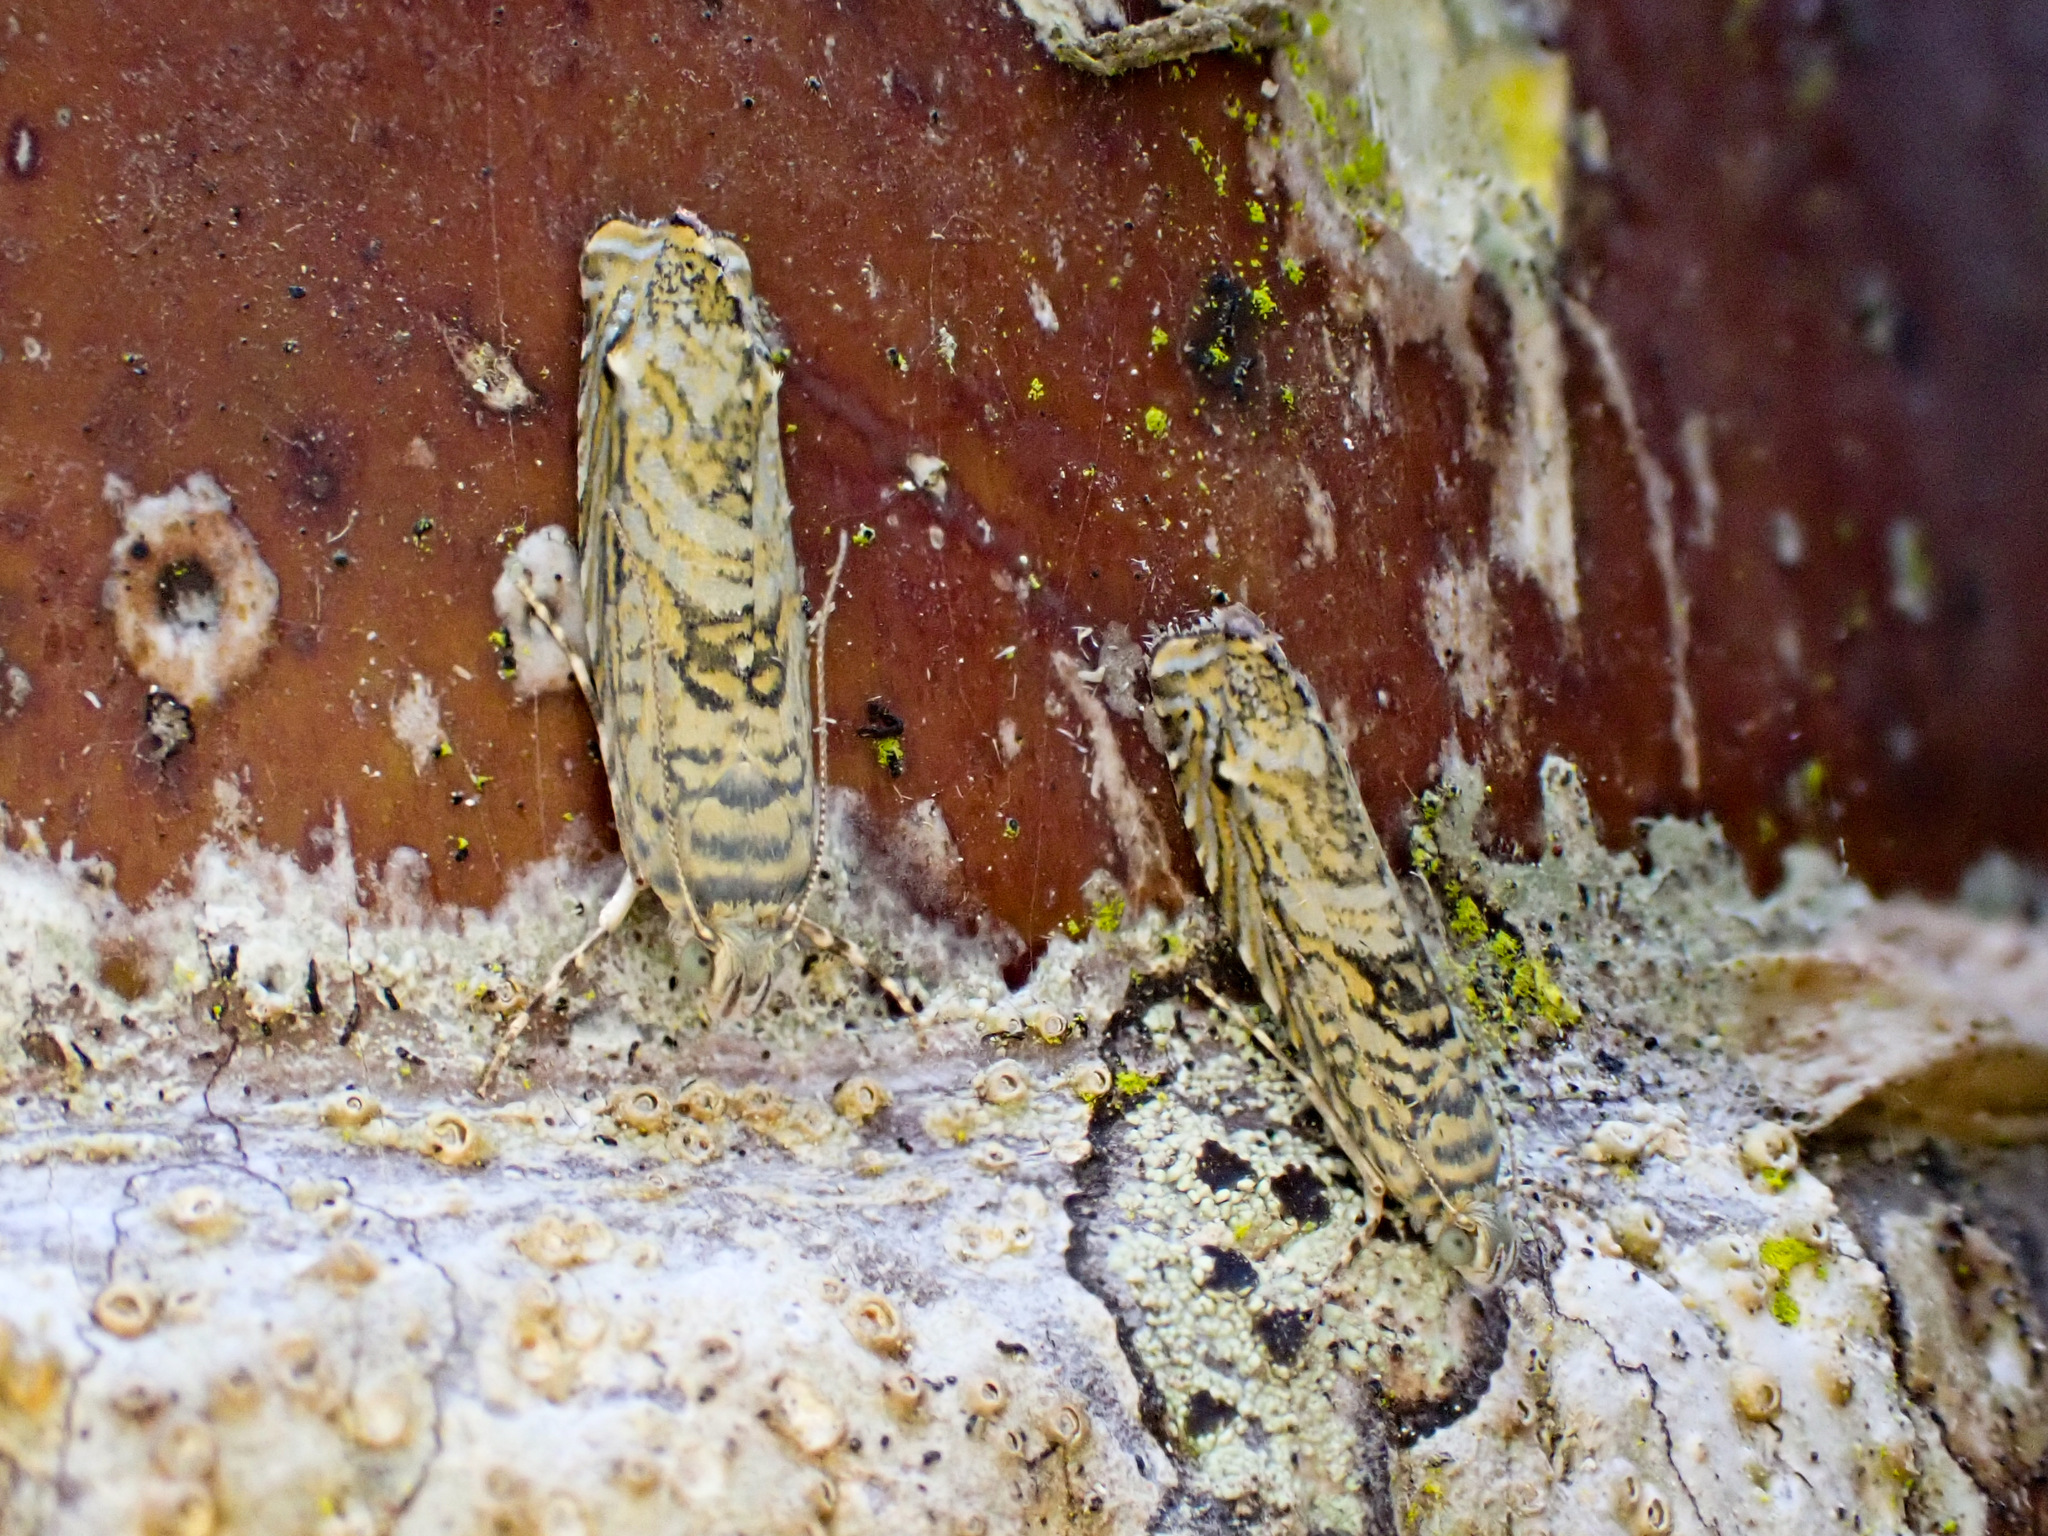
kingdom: Animalia
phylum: Arthropoda
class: Insecta
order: Lepidoptera
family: Plutellidae
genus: Doxophyrtis
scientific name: Doxophyrtis hydrocosma
